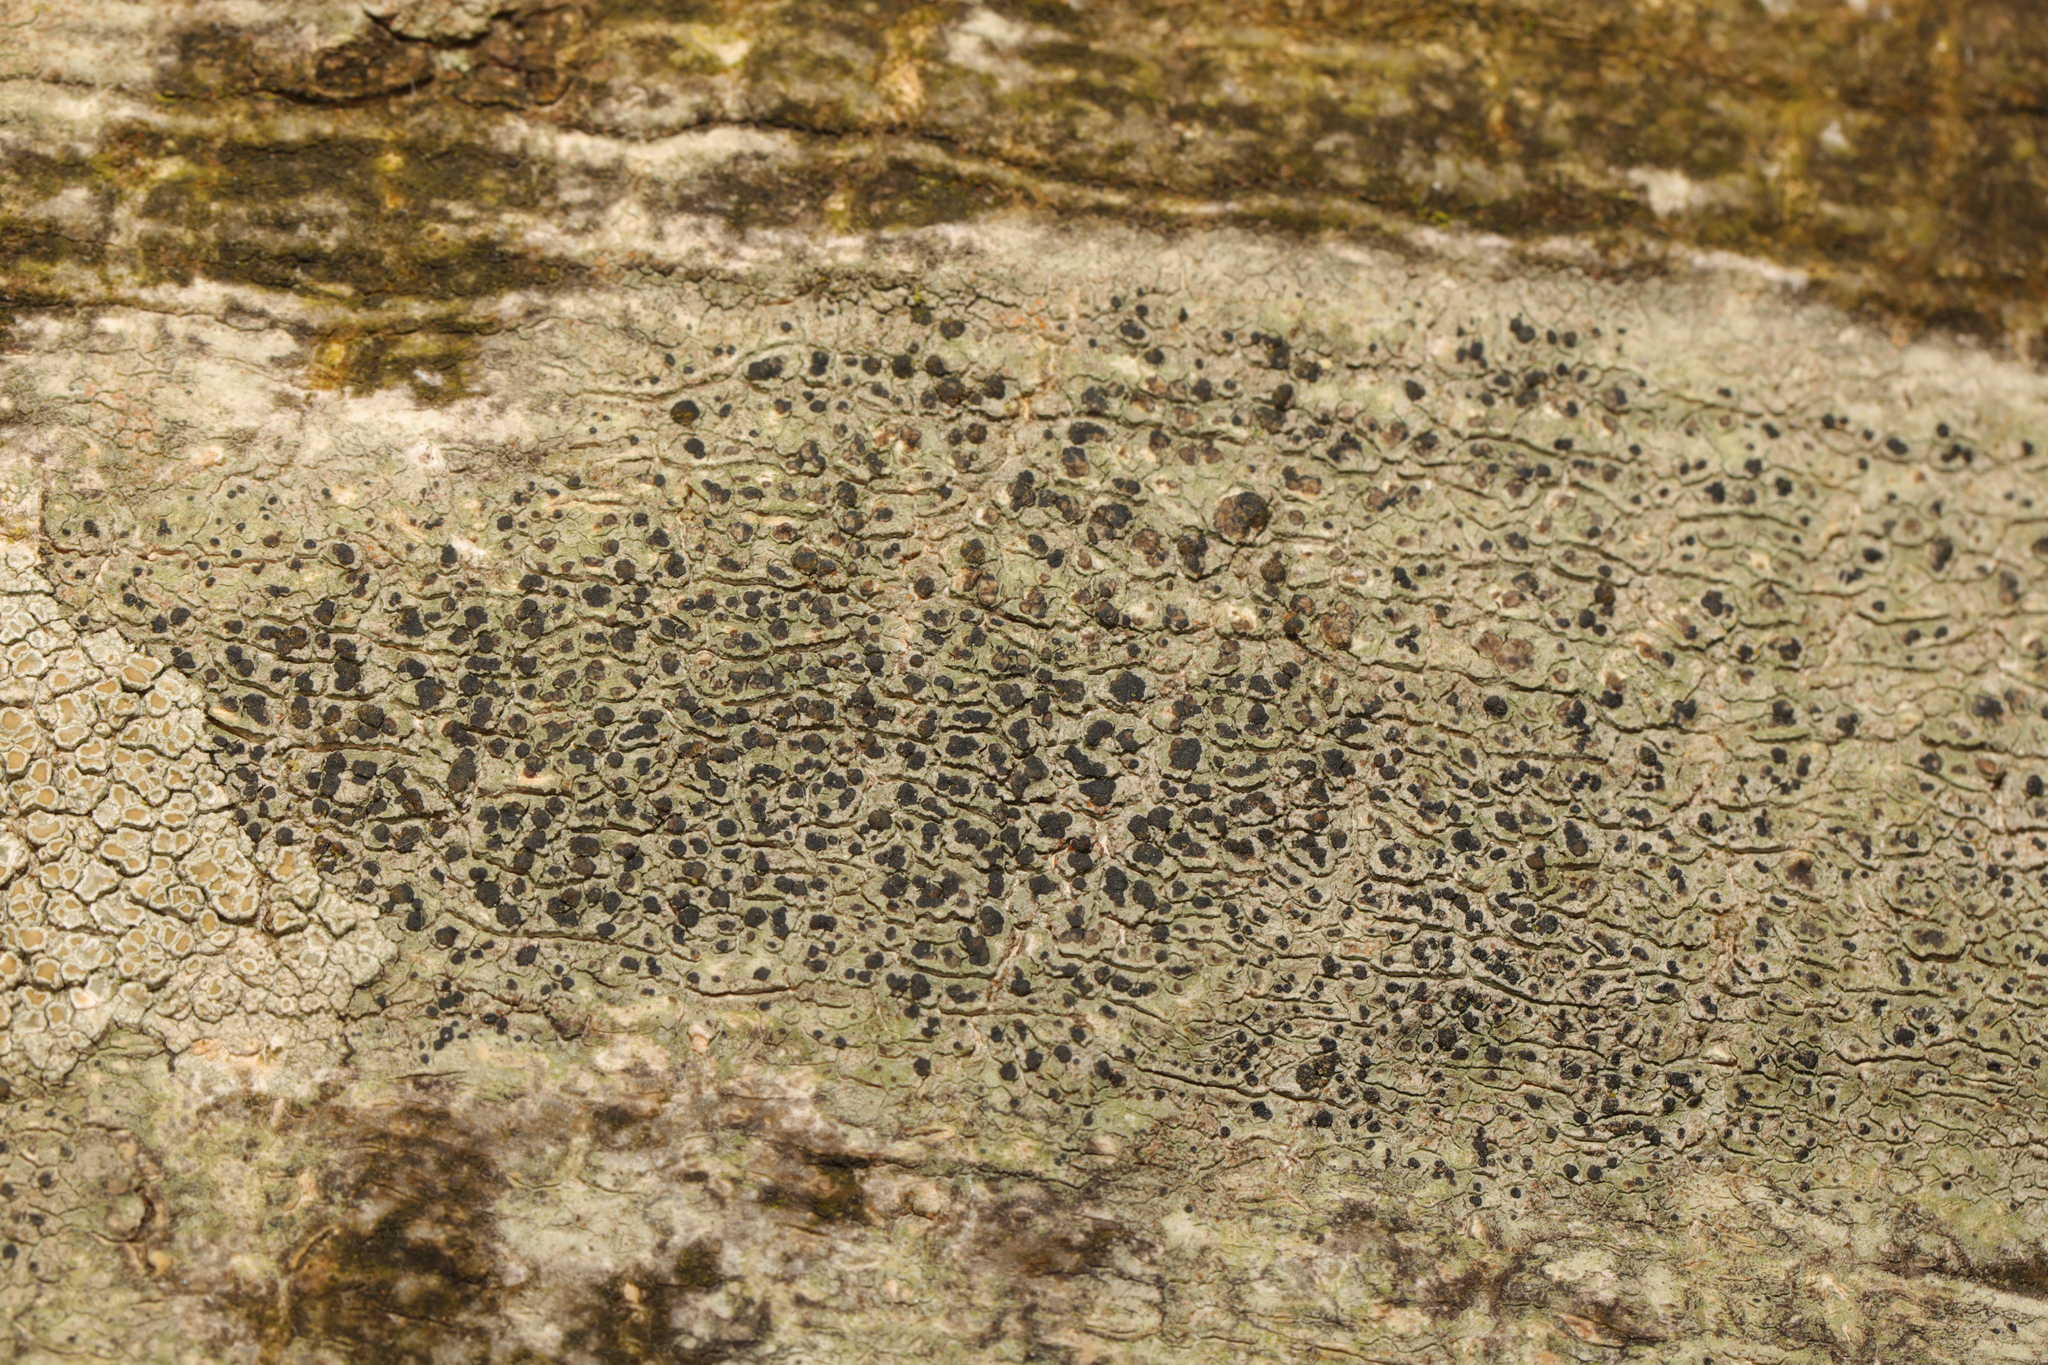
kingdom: Fungi
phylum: Ascomycota
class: Lecanoromycetes
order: Lecanorales
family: Lecanoraceae
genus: Lecidella
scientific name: Lecidella elaeochroma
